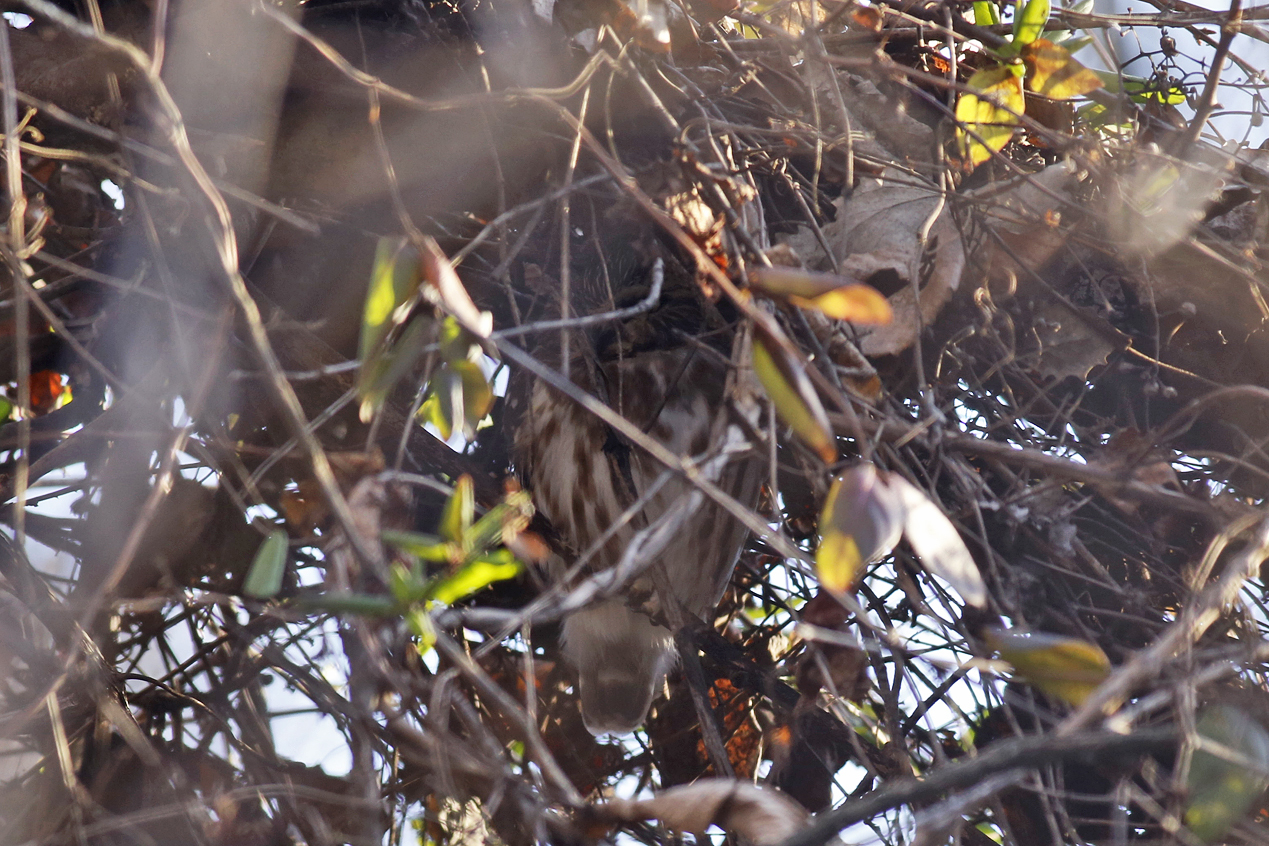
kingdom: Animalia
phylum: Chordata
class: Aves
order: Strigiformes
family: Strigidae
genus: Aegolius
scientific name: Aegolius acadicus
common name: Northern saw-whet owl
